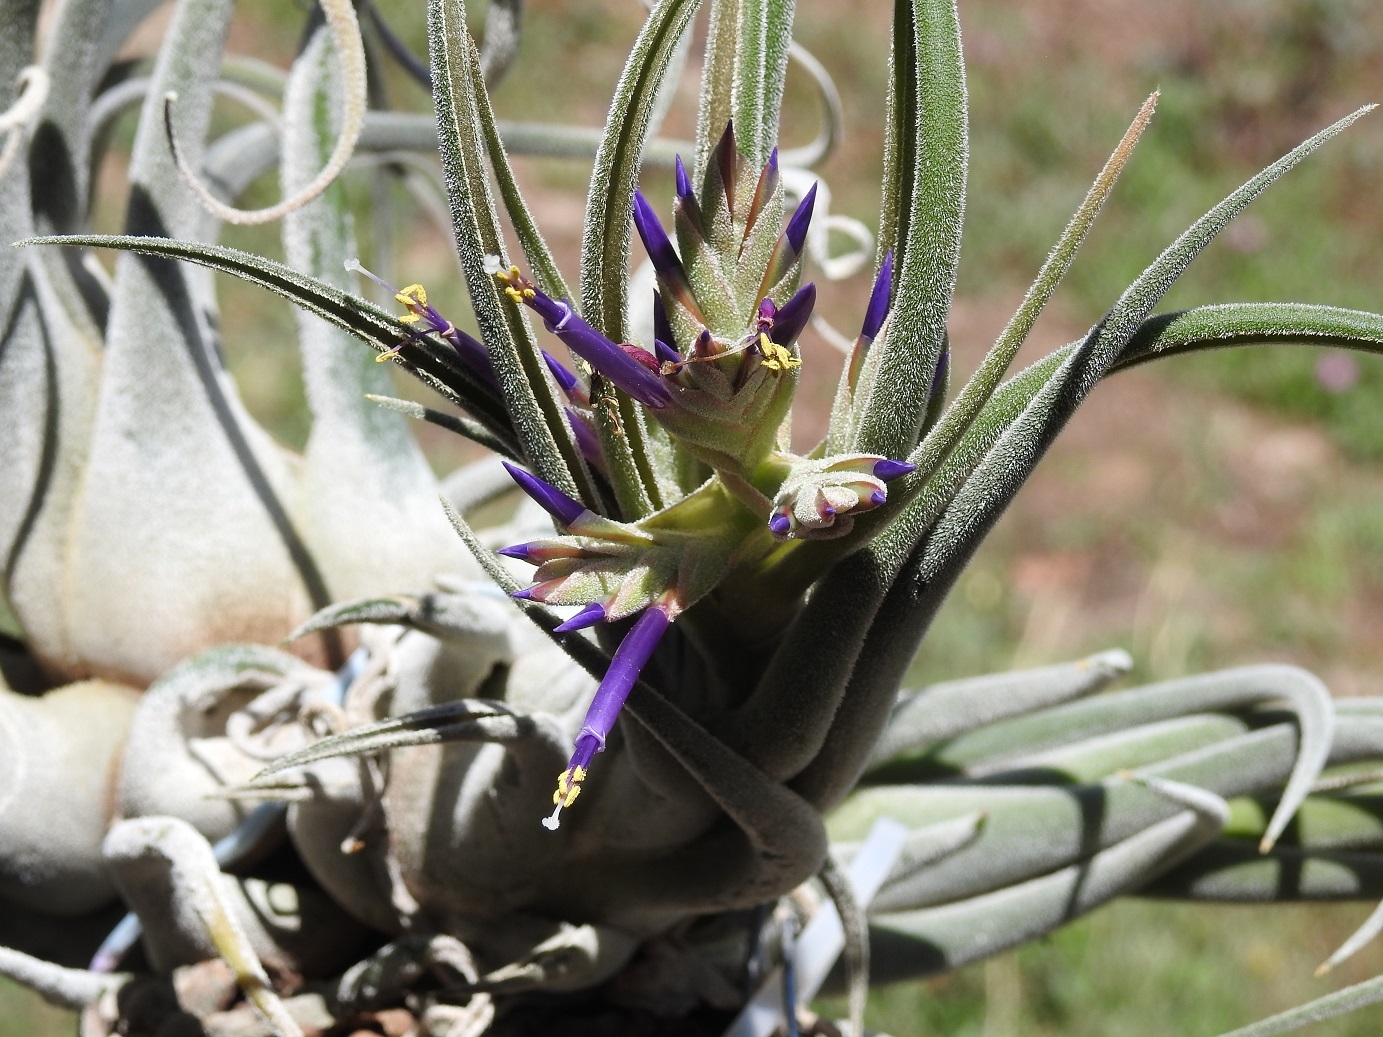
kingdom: Plantae
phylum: Tracheophyta
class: Liliopsida
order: Poales
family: Bromeliaceae
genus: Tillandsia
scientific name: Tillandsia seleriana
